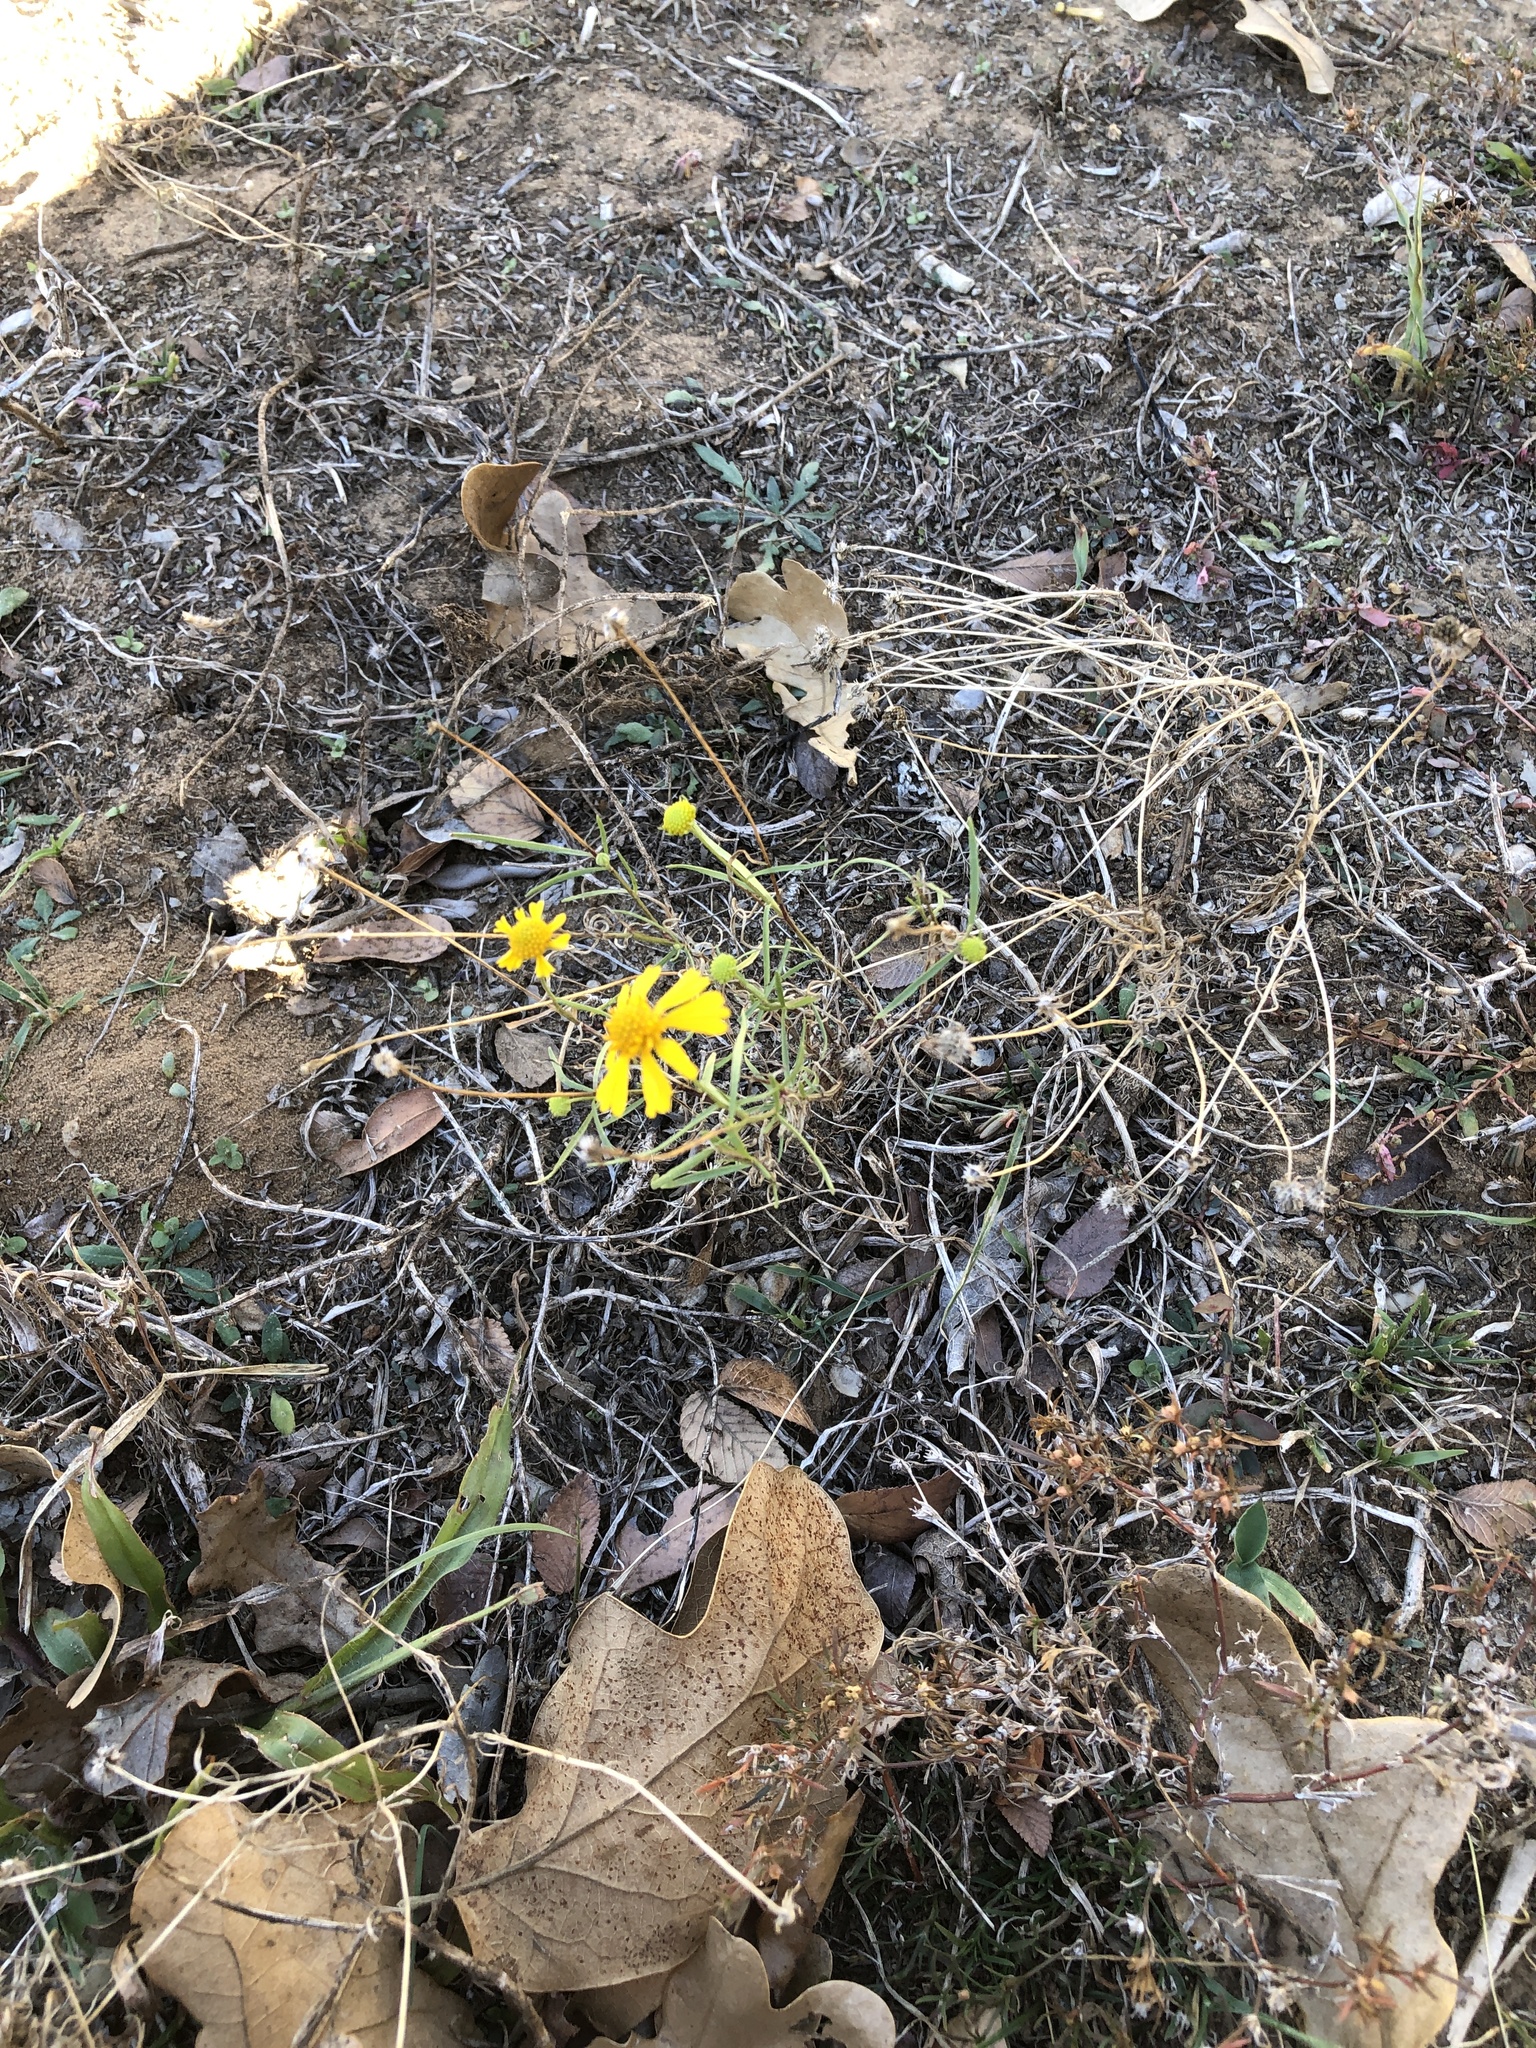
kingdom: Plantae
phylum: Tracheophyta
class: Magnoliopsida
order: Asterales
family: Asteraceae
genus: Helenium
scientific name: Helenium amarum
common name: Bitter sneezeweed
